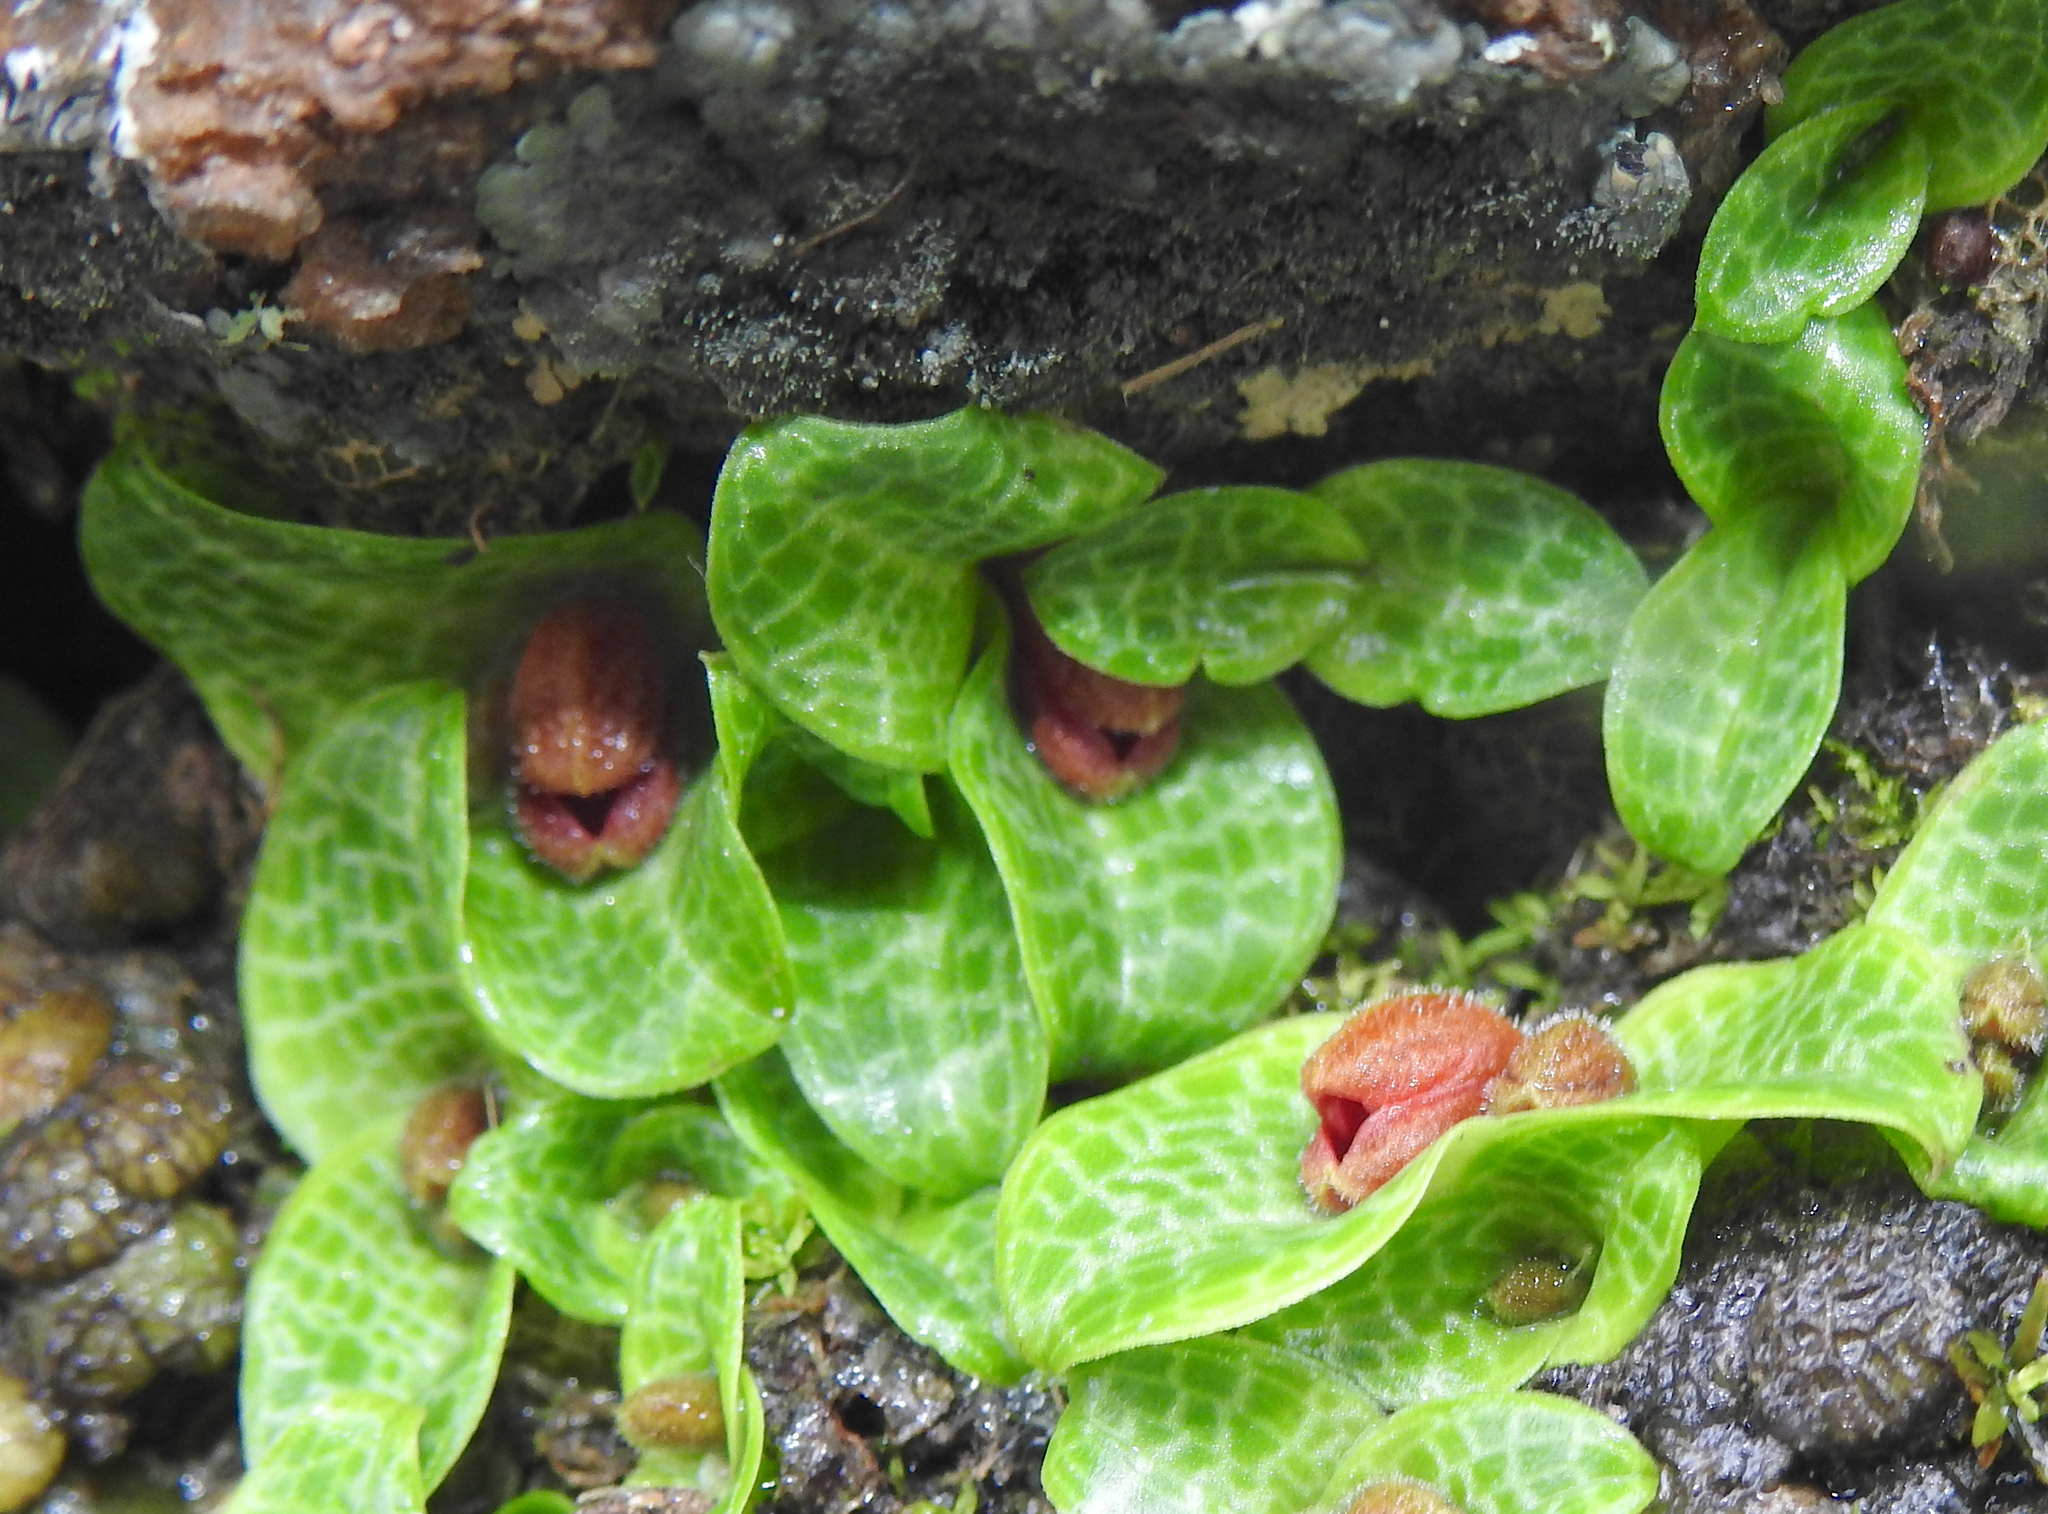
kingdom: Plantae
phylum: Tracheophyta
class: Liliopsida
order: Asparagales
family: Orchidaceae
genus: Porpax
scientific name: Porpax jerdoniana
